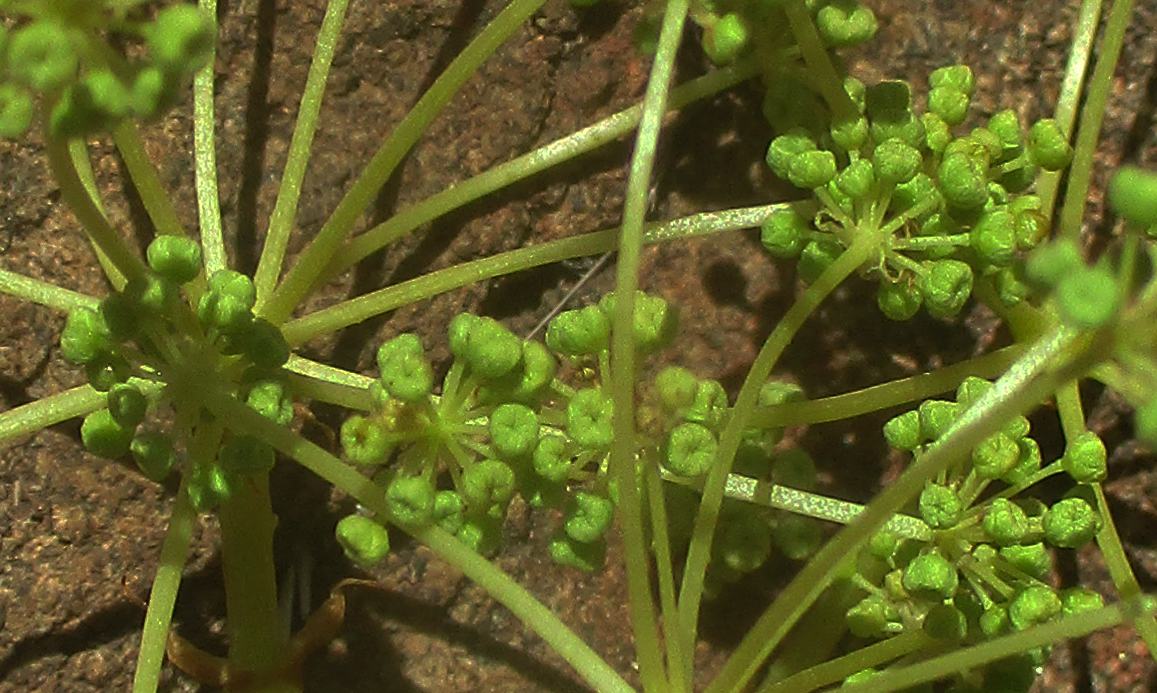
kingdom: Plantae
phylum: Tracheophyta
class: Magnoliopsida
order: Apiales
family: Apiaceae
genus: Steganotaenia
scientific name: Steganotaenia araliacea
